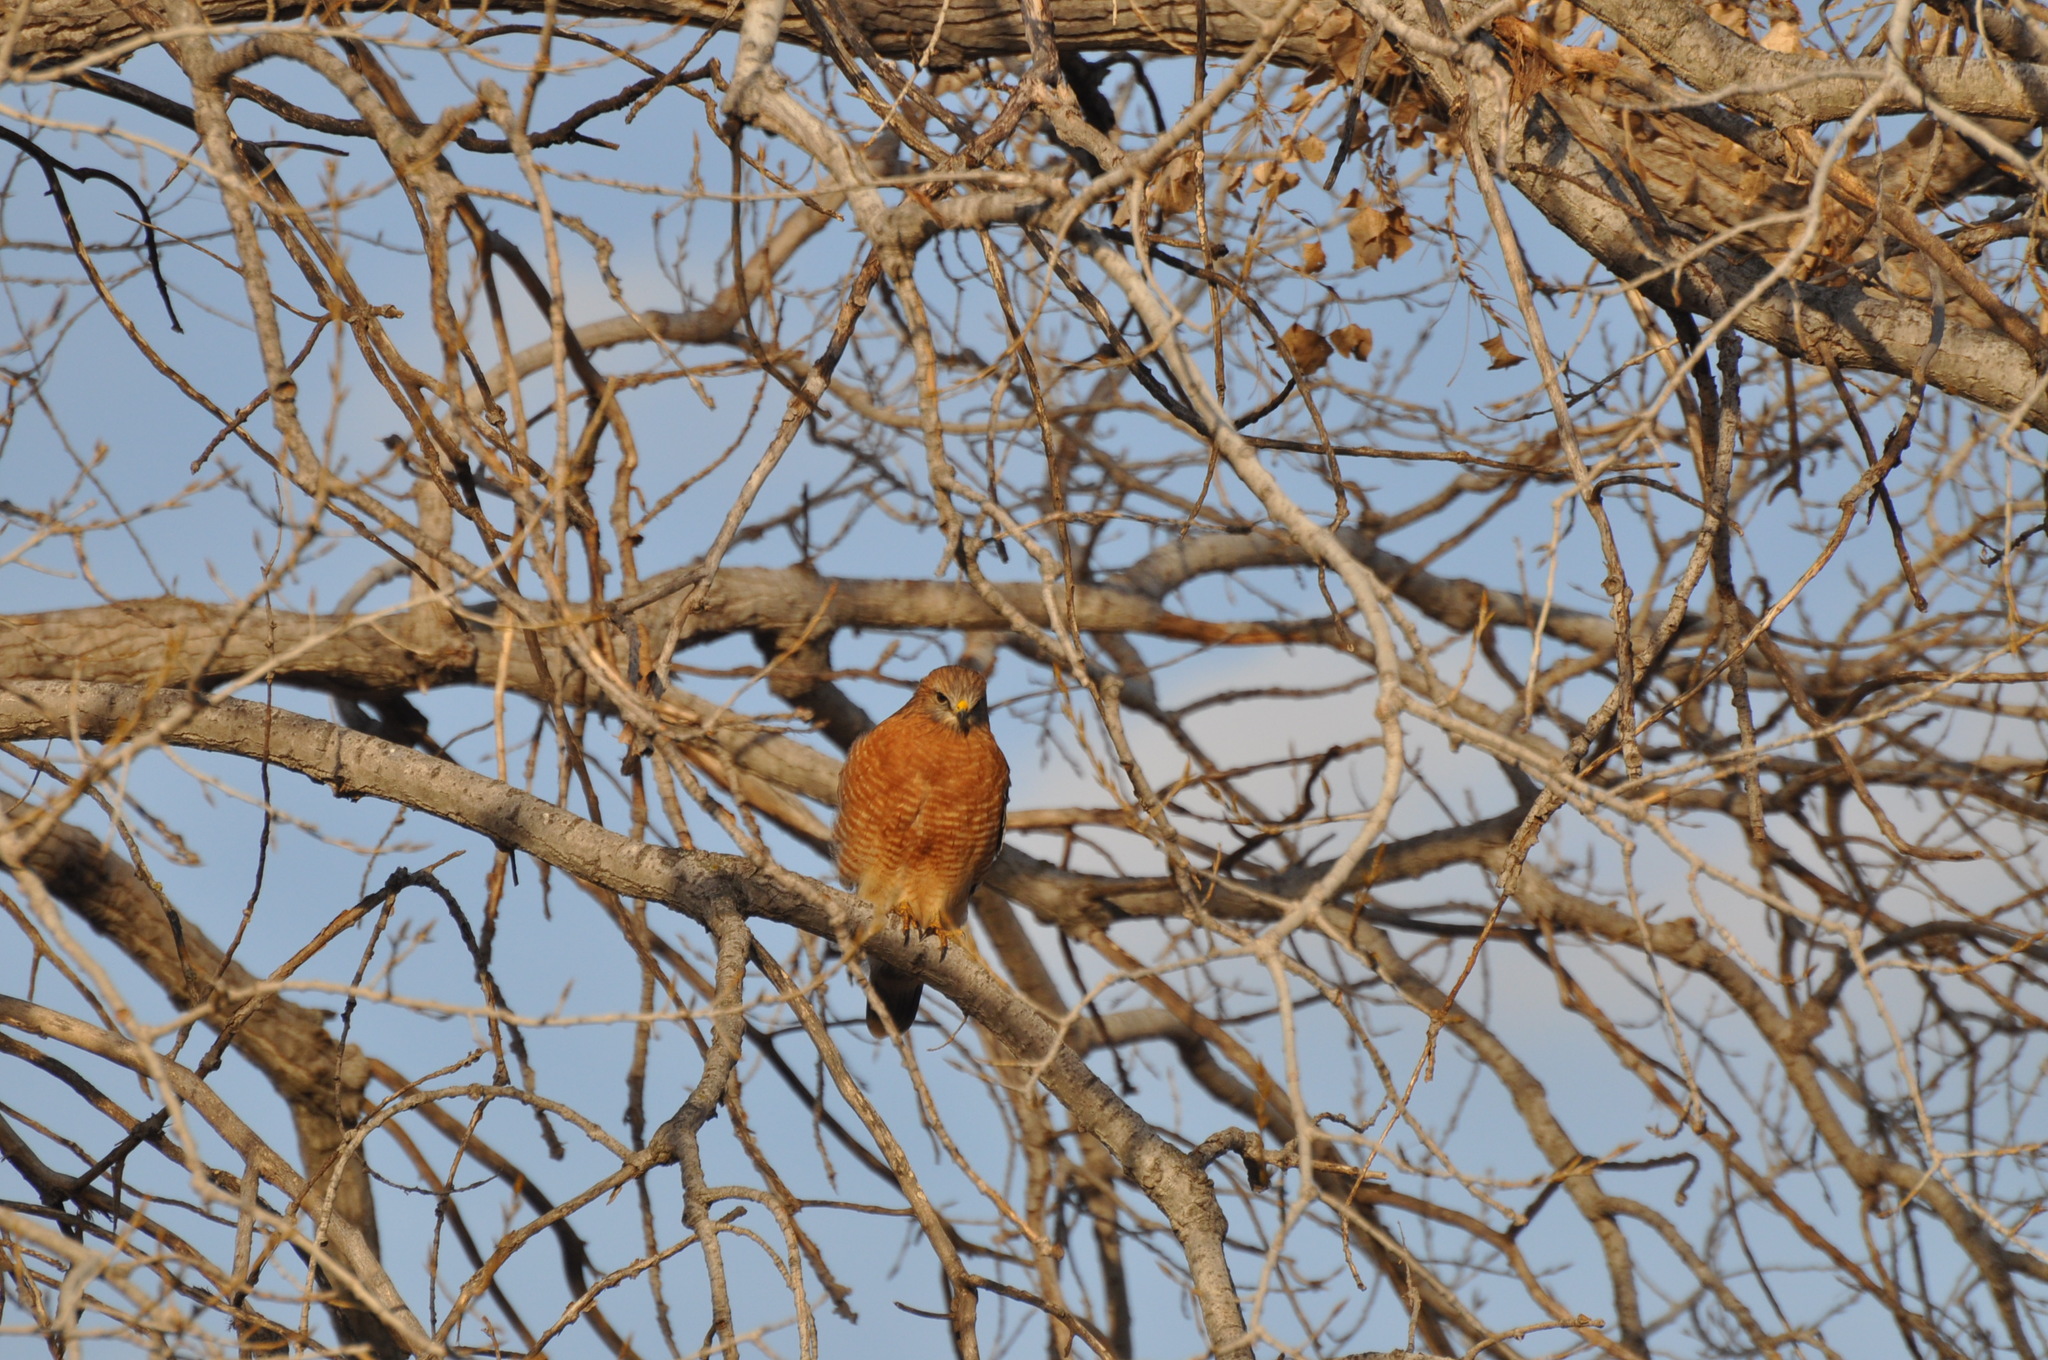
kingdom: Animalia
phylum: Chordata
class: Aves
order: Accipitriformes
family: Accipitridae
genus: Buteo
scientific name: Buteo lineatus
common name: Red-shouldered hawk
